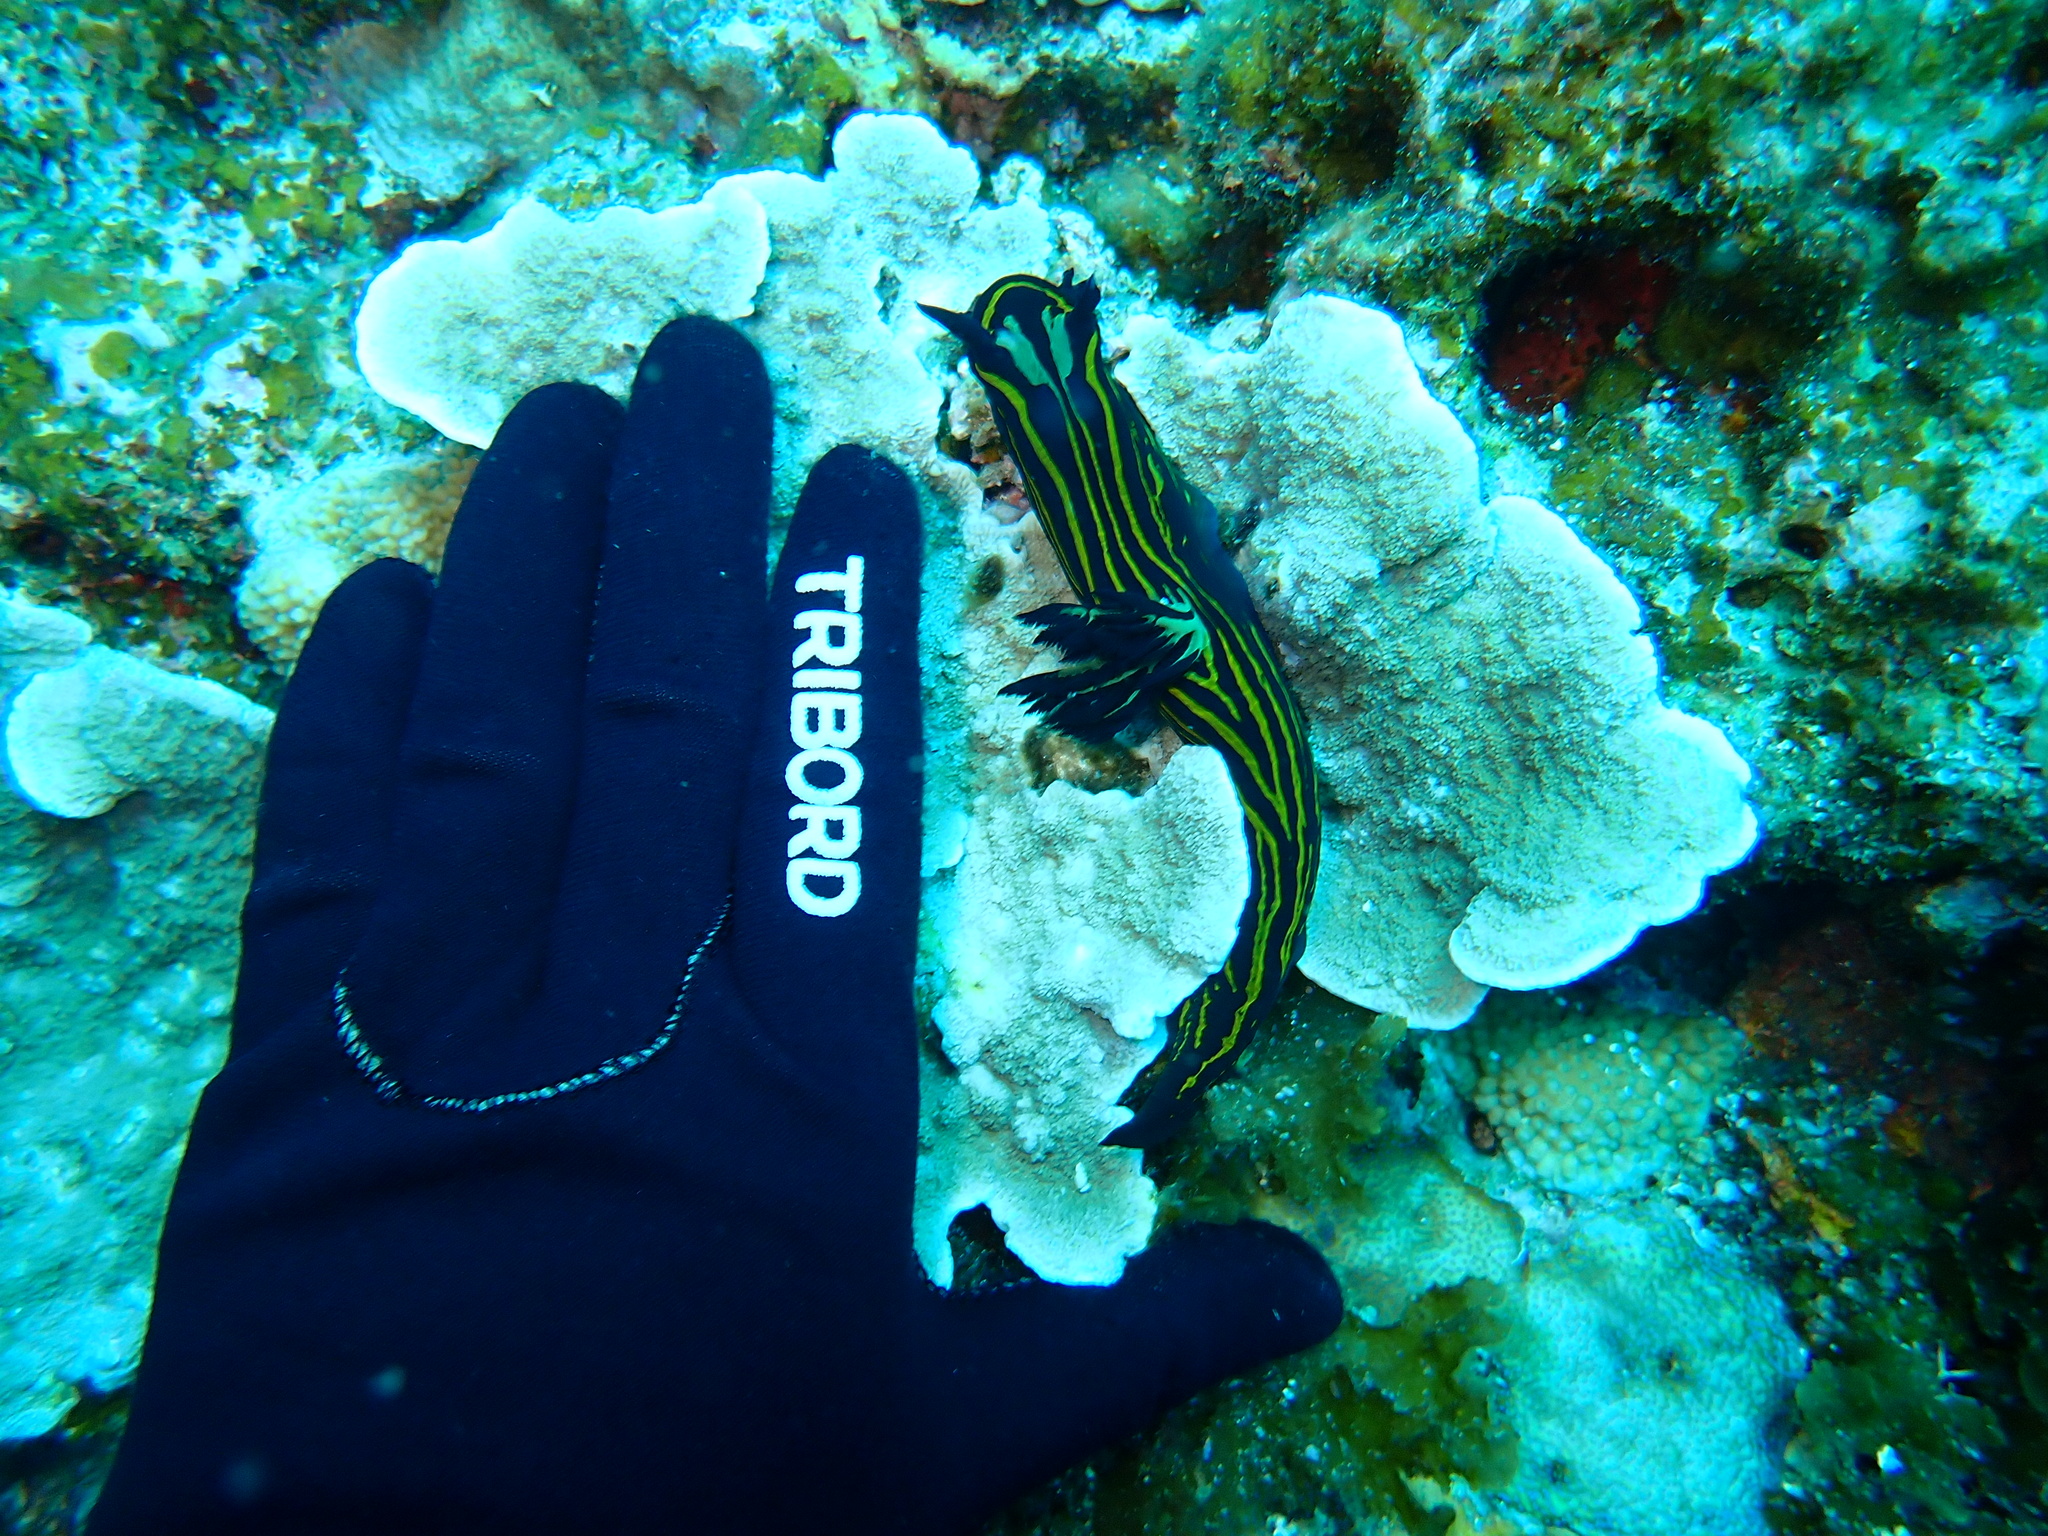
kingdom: Animalia
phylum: Mollusca
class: Gastropoda
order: Nudibranchia
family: Polyceridae
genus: Tyrannodoris
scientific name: Tyrannodoris luteolineata
